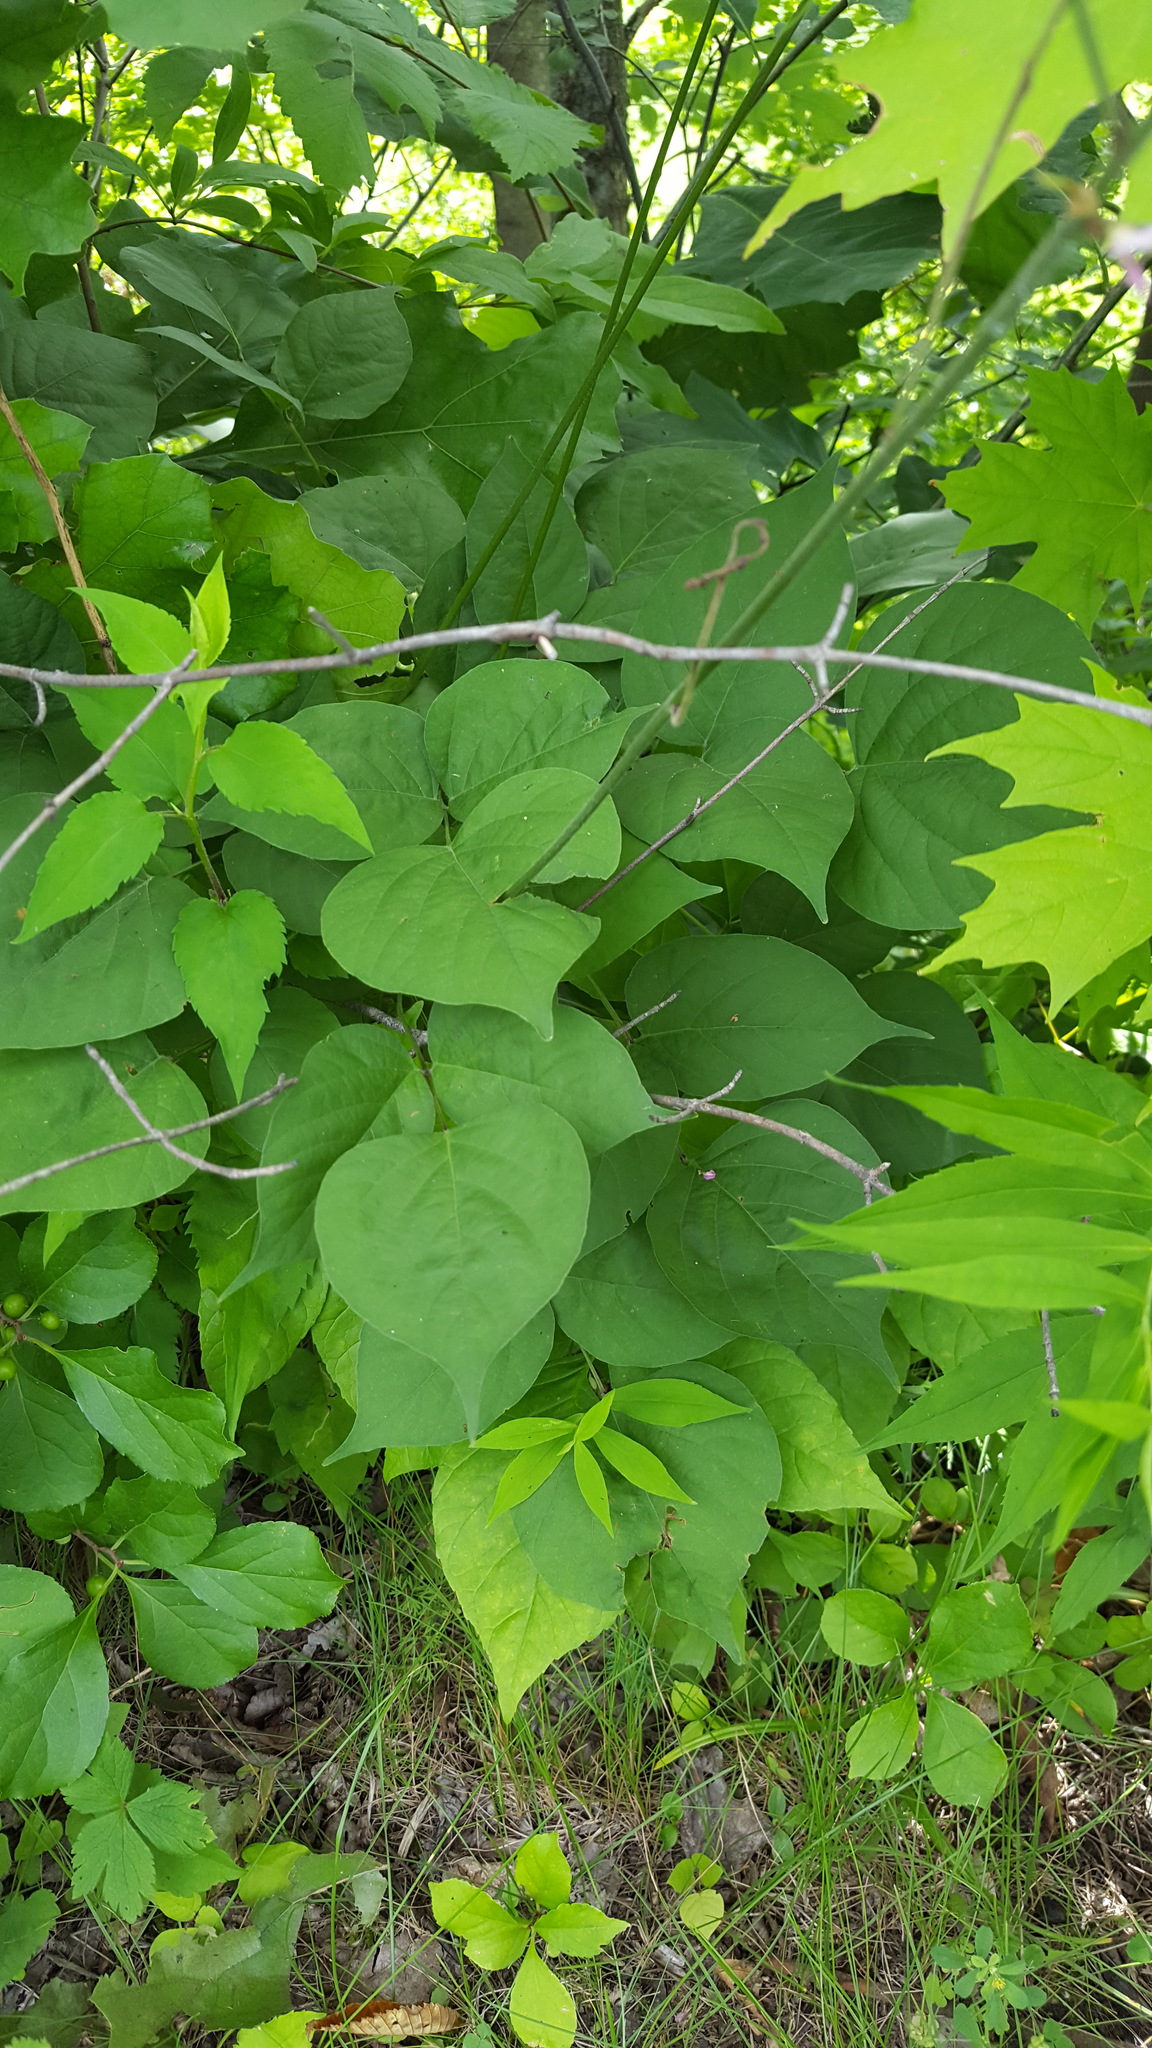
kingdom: Plantae
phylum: Tracheophyta
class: Magnoliopsida
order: Fabales
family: Fabaceae
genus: Hylodesmum
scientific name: Hylodesmum glutinosum
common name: Clustered-leaved tick-trefoil
